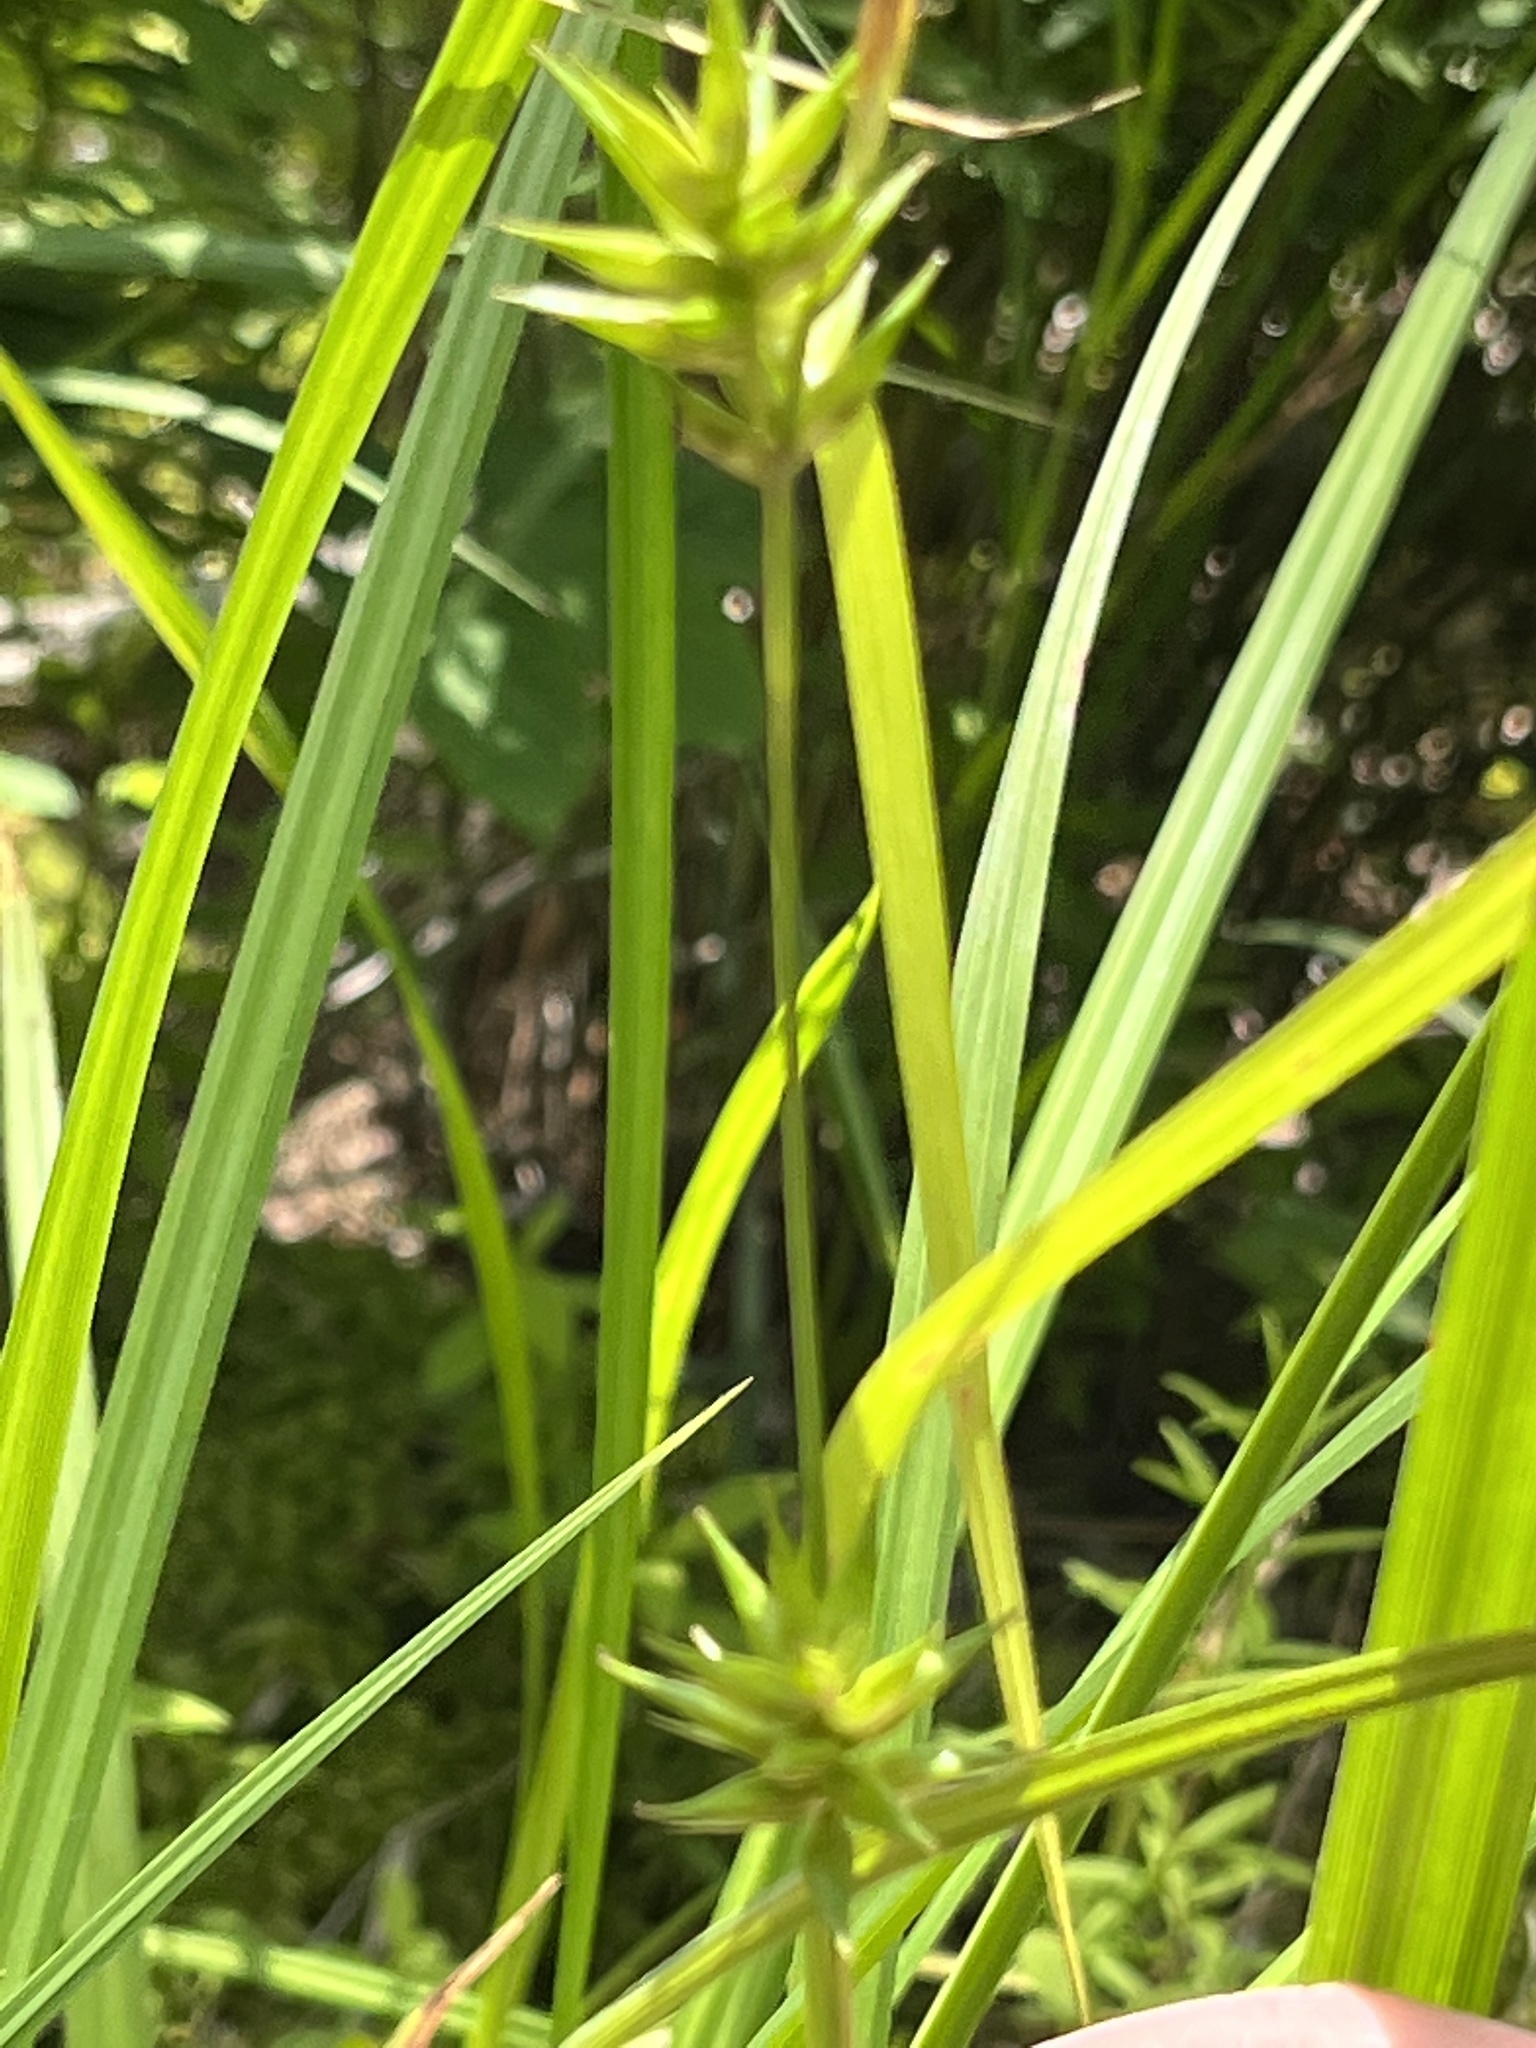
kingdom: Plantae
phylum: Tracheophyta
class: Liliopsida
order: Poales
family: Cyperaceae
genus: Carex
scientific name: Carex folliculata
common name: Northern long sedge
